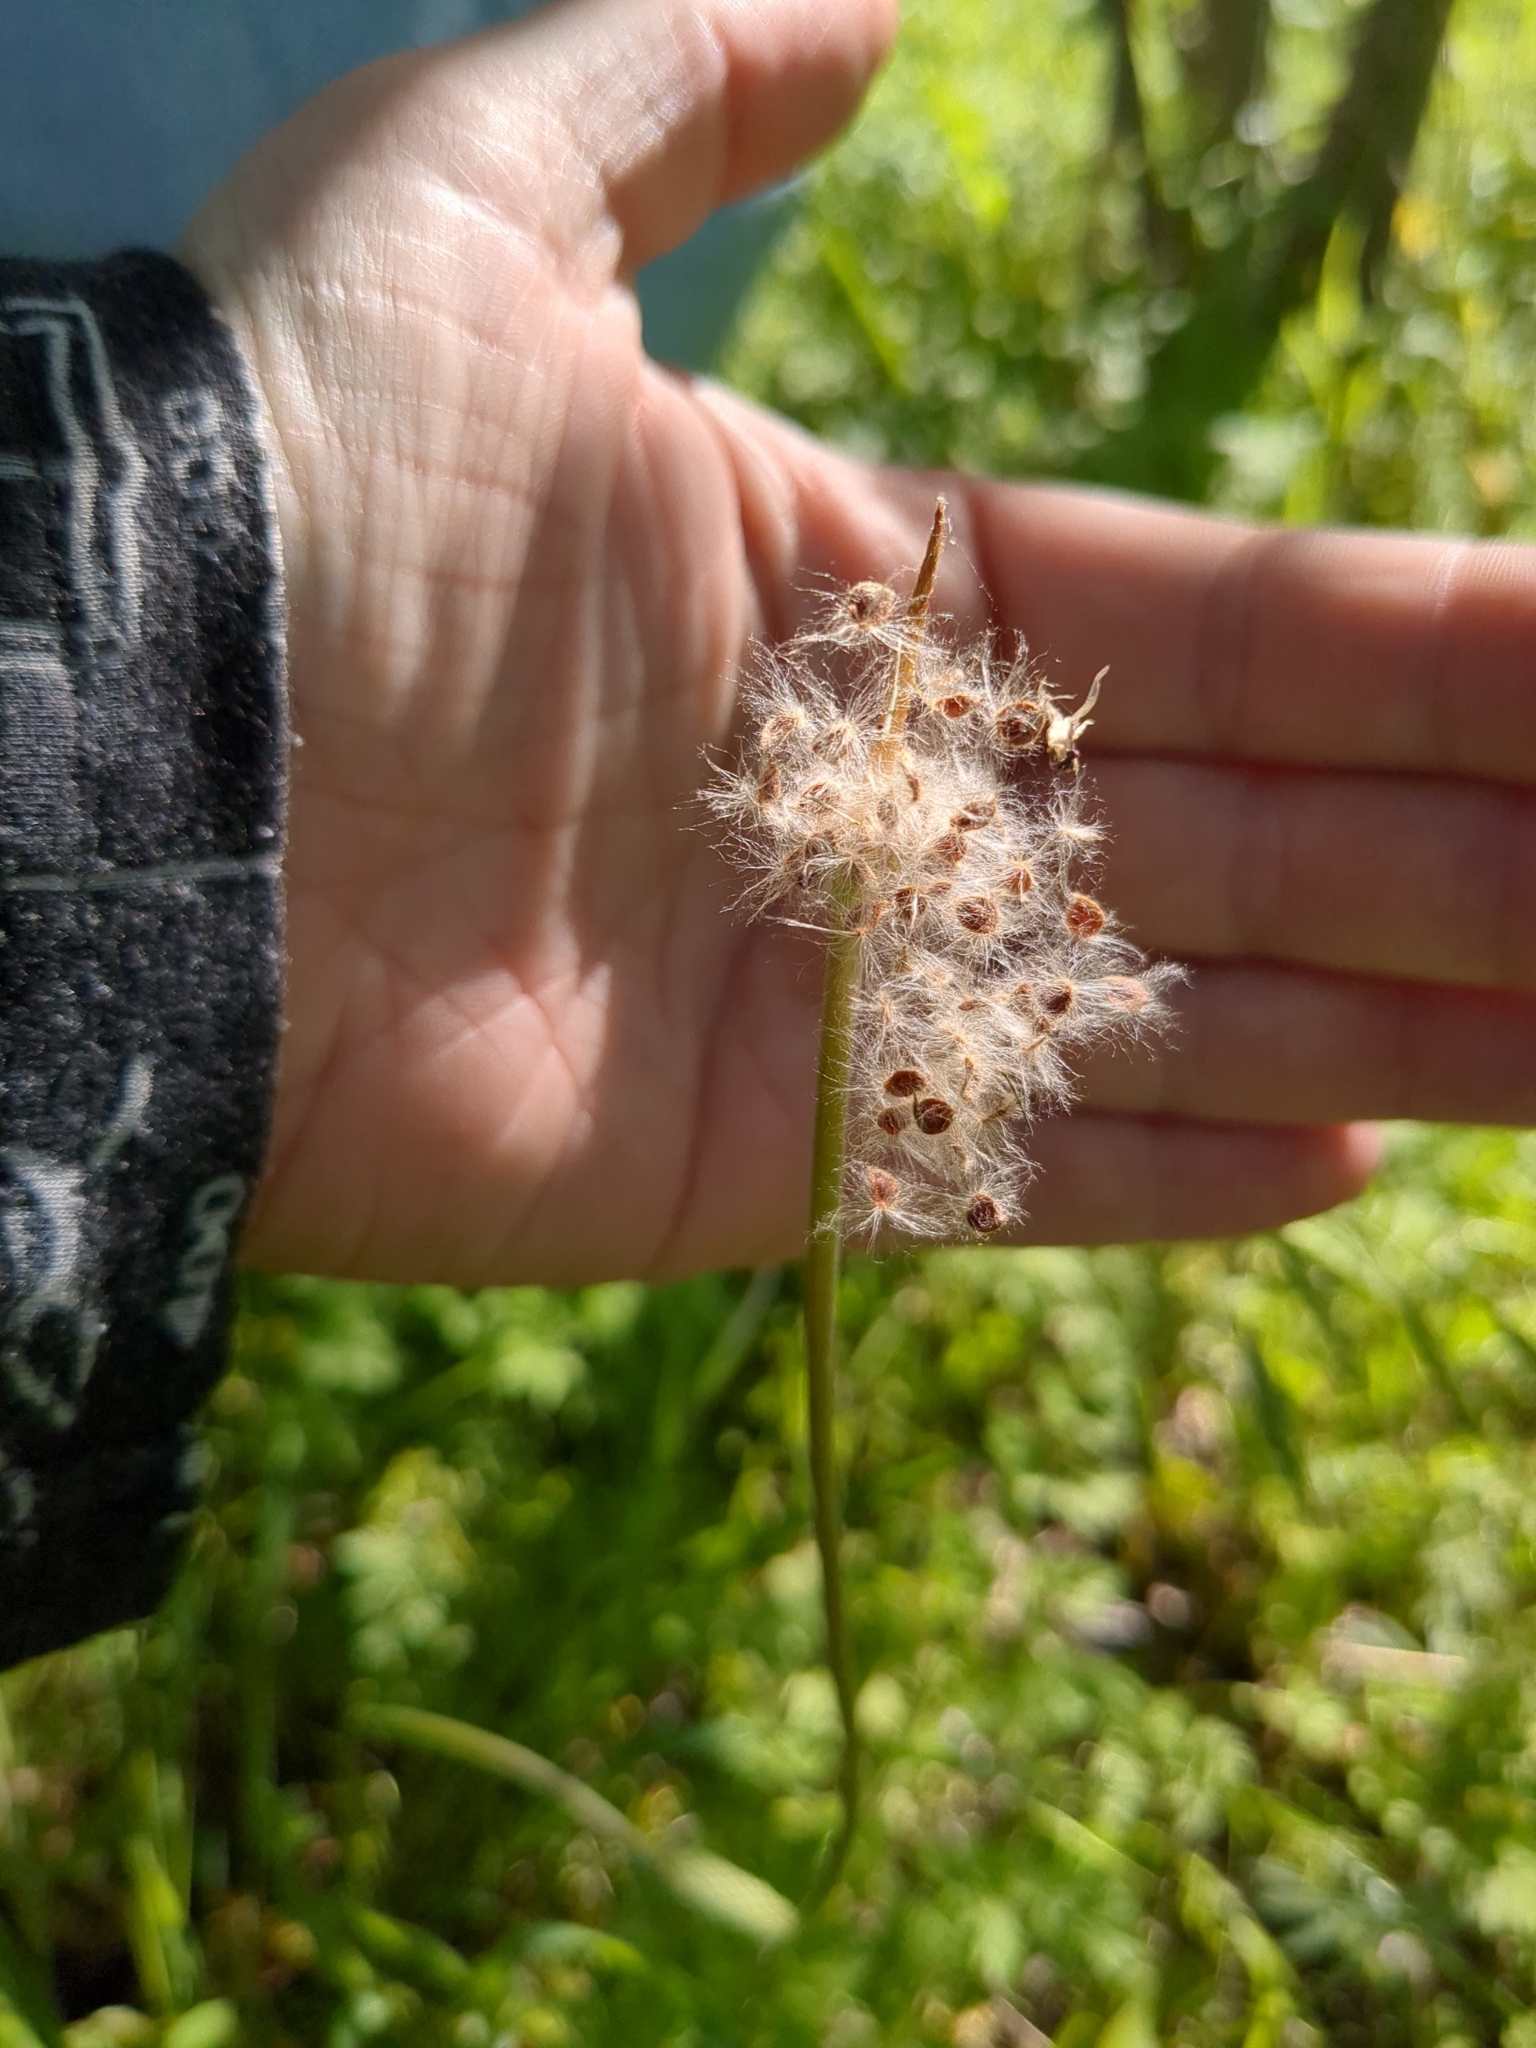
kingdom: Plantae
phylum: Tracheophyta
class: Magnoliopsida
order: Ranunculales
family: Ranunculaceae
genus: Anemone
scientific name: Anemone berlandieri
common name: Ten-petal anemone
